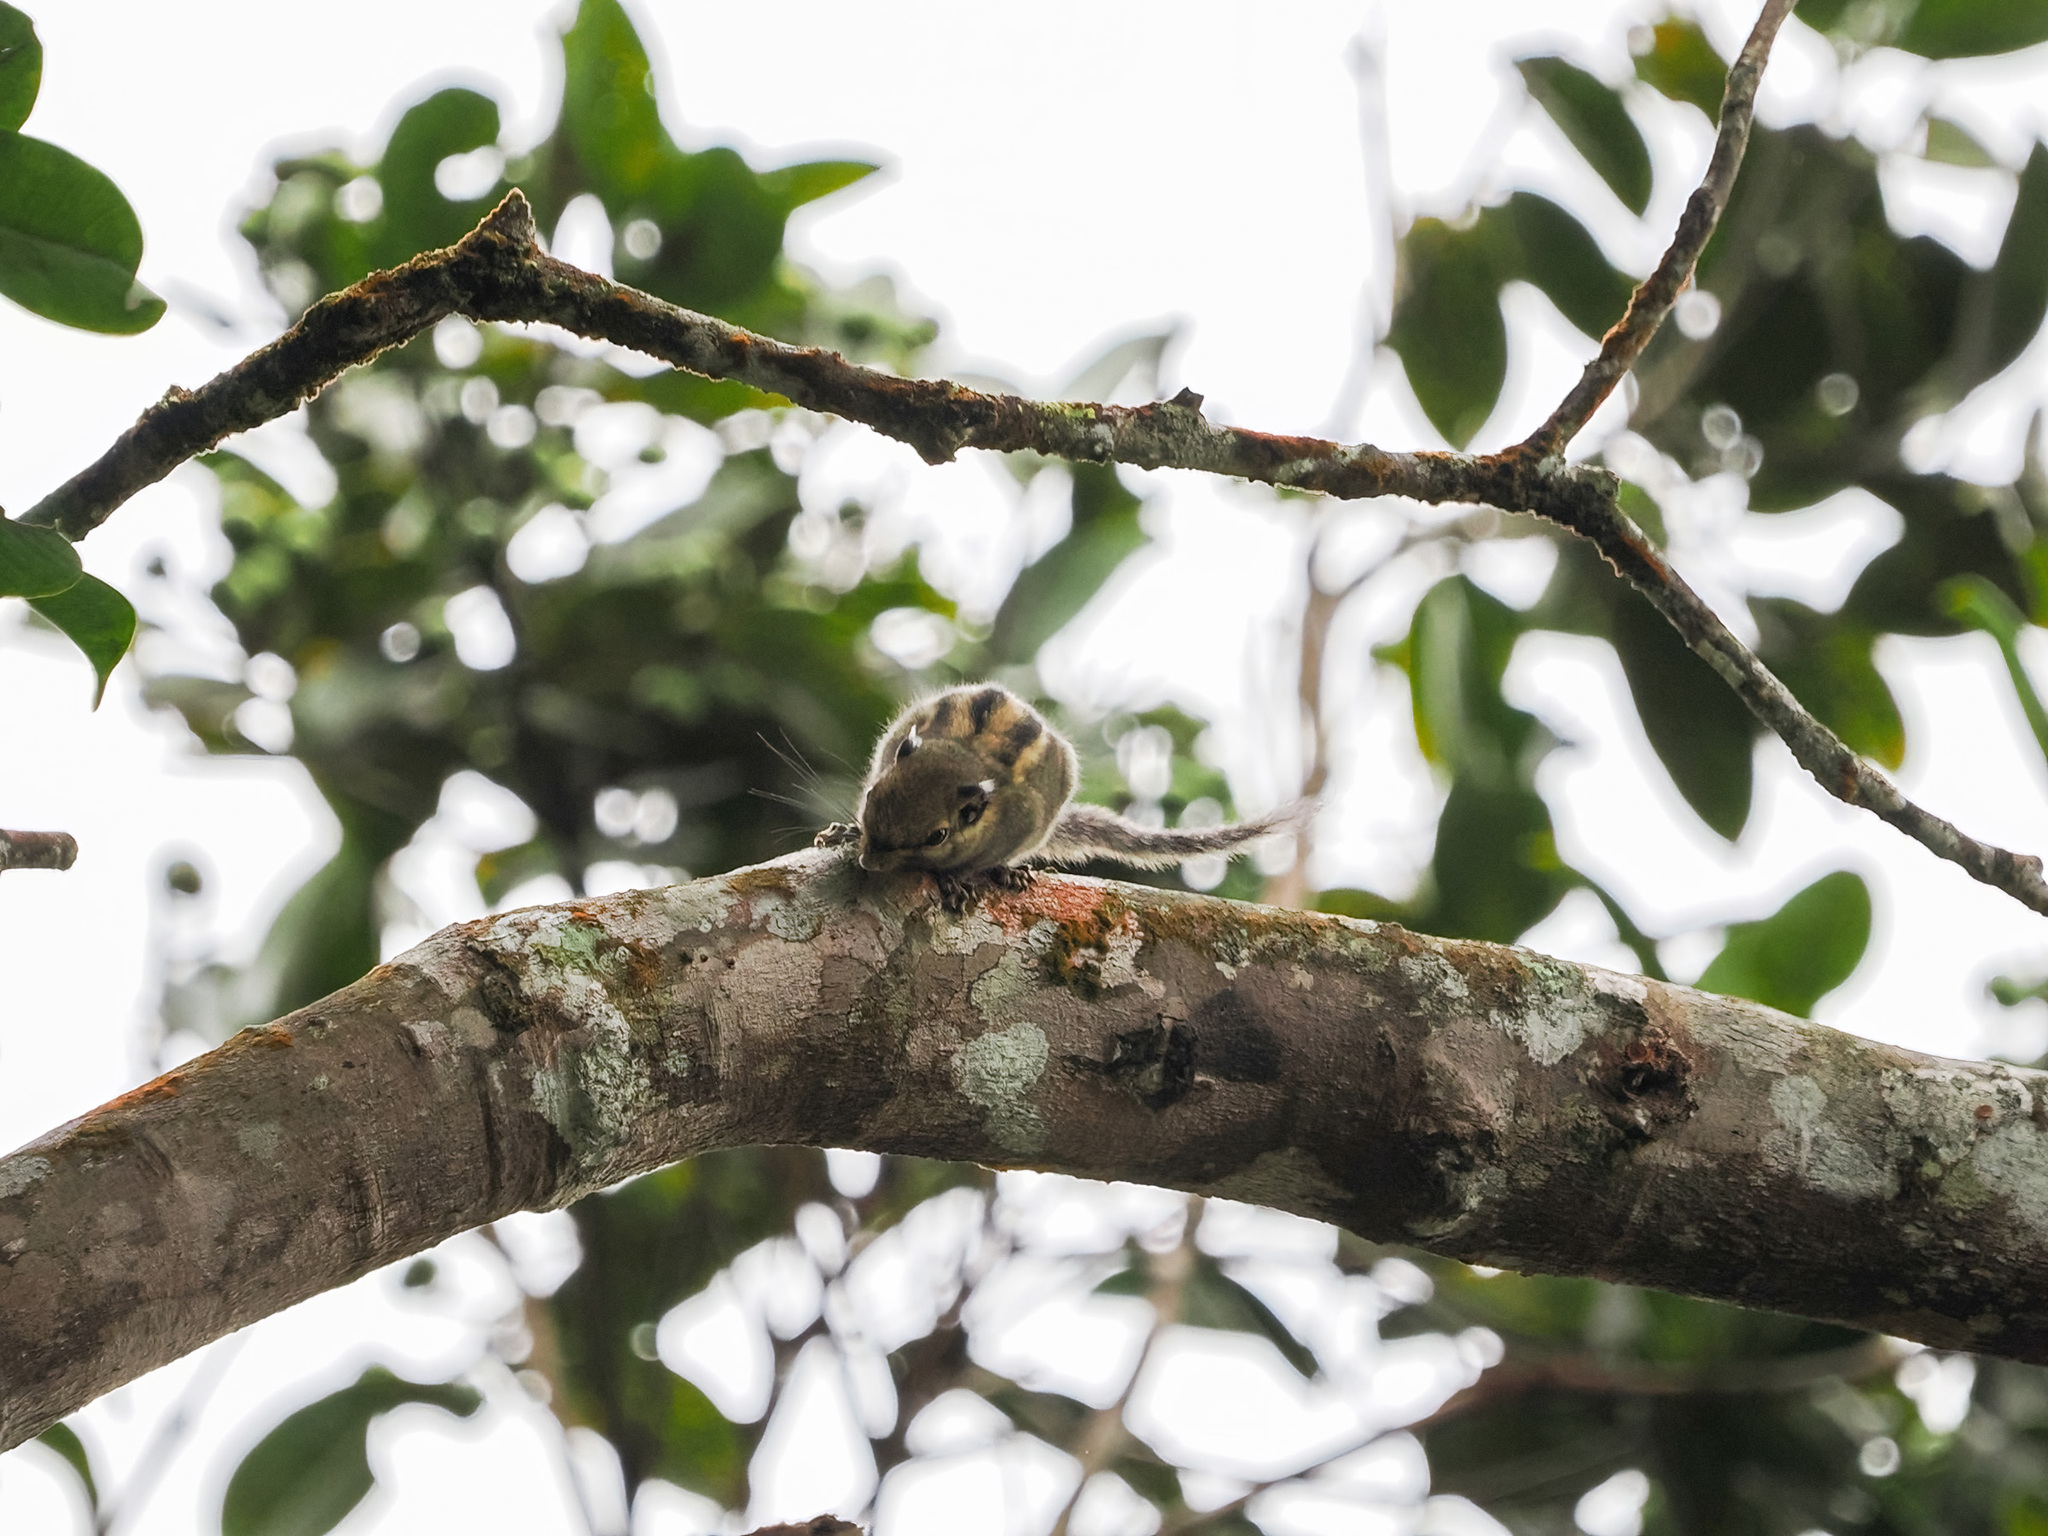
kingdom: Animalia
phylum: Chordata
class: Mammalia
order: Rodentia
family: Sciuridae
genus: Tamiops
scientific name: Tamiops mcclellandii
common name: Himalayan striped squirrel
